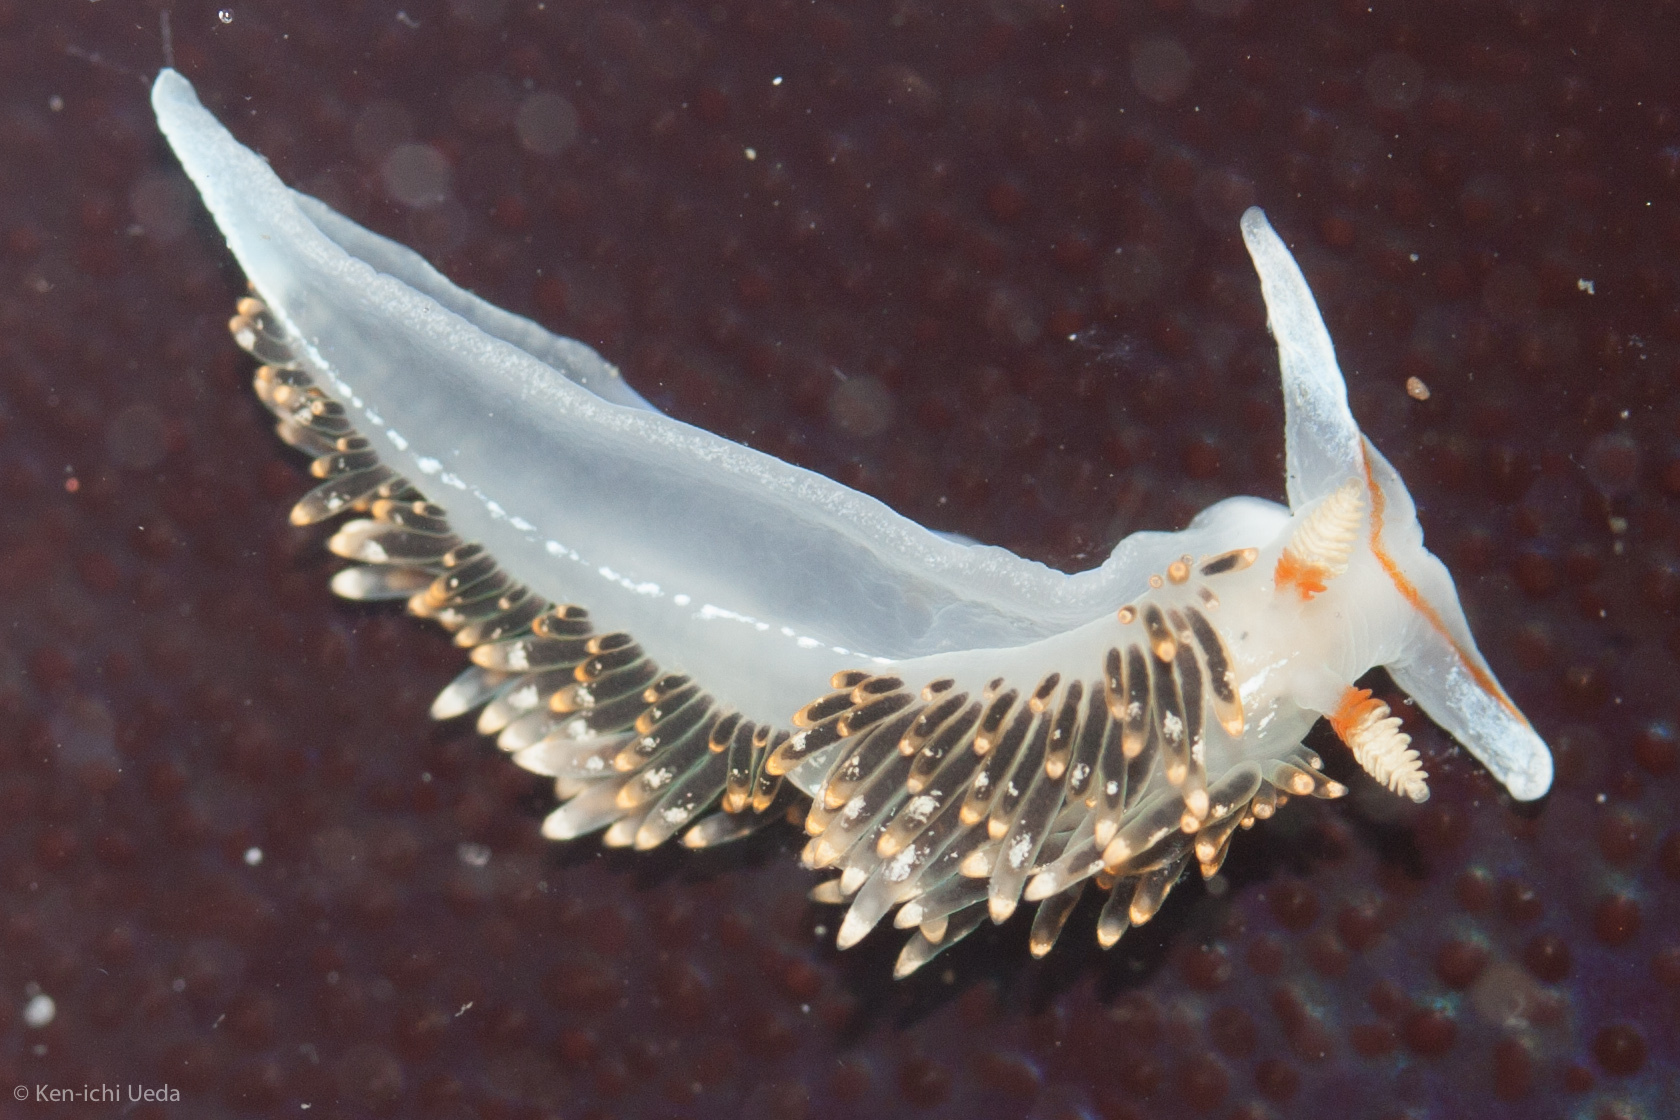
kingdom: Animalia
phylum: Mollusca
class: Gastropoda
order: Nudibranchia
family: Facelinidae
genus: Phidiana
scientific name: Phidiana hiltoni
